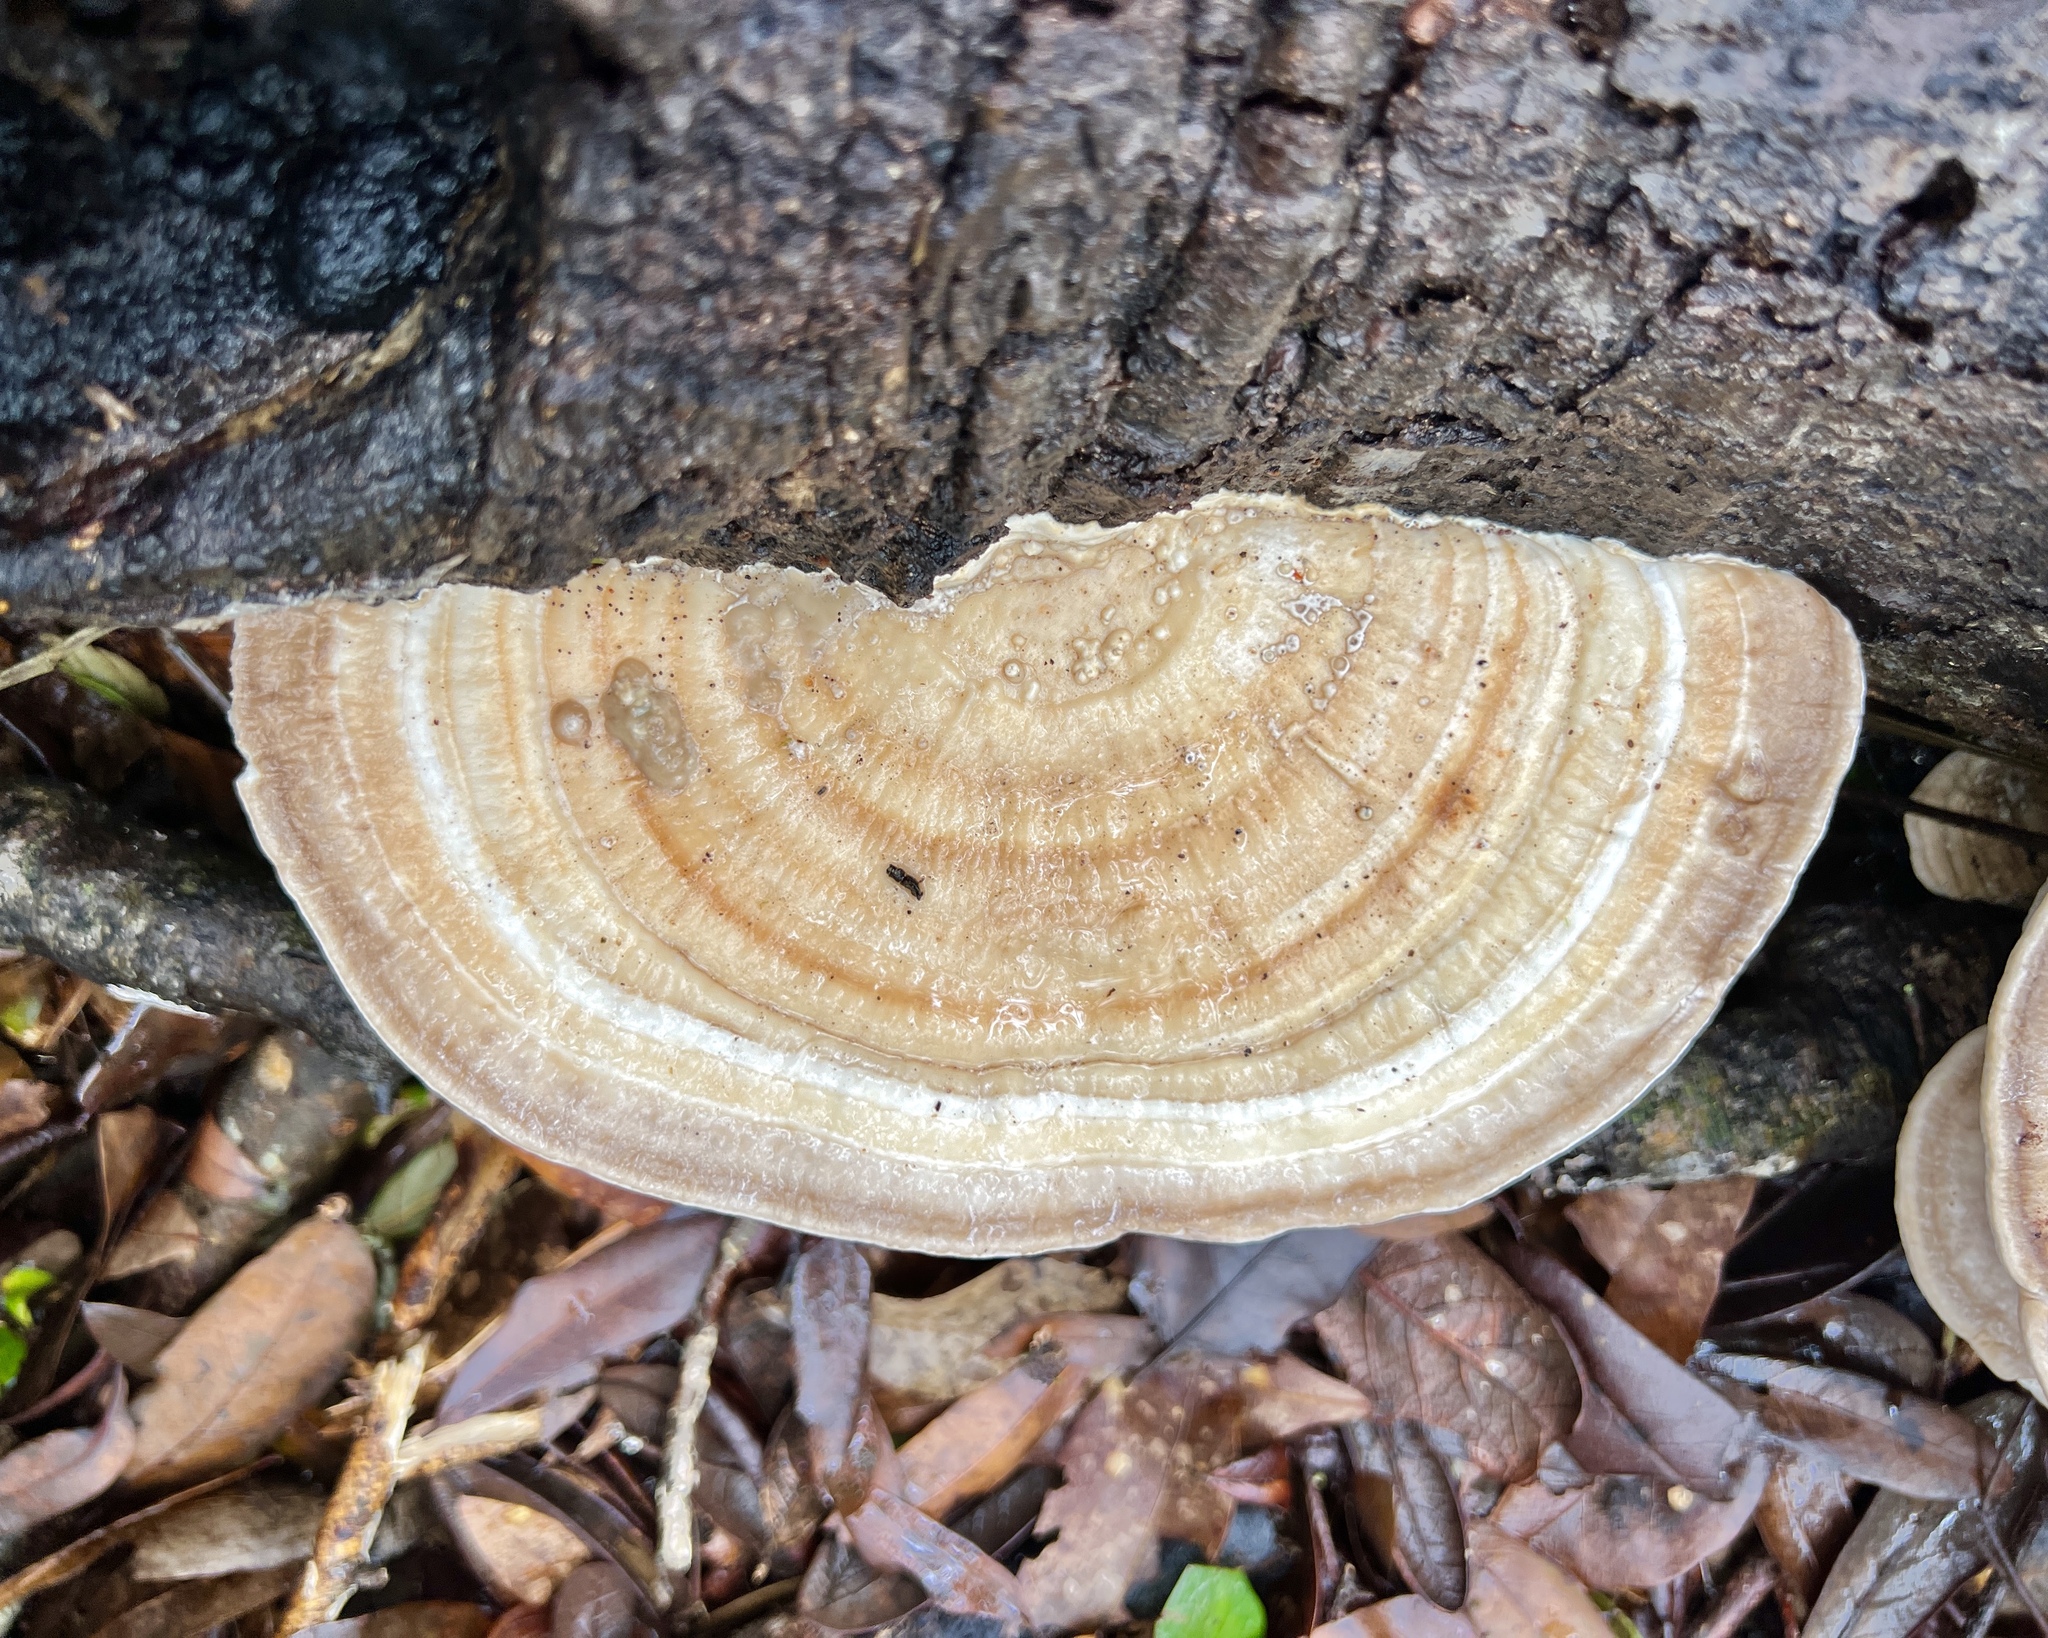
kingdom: Fungi
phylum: Basidiomycota
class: Agaricomycetes
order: Polyporales
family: Polyporaceae
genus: Trametes
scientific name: Trametes lactinea
